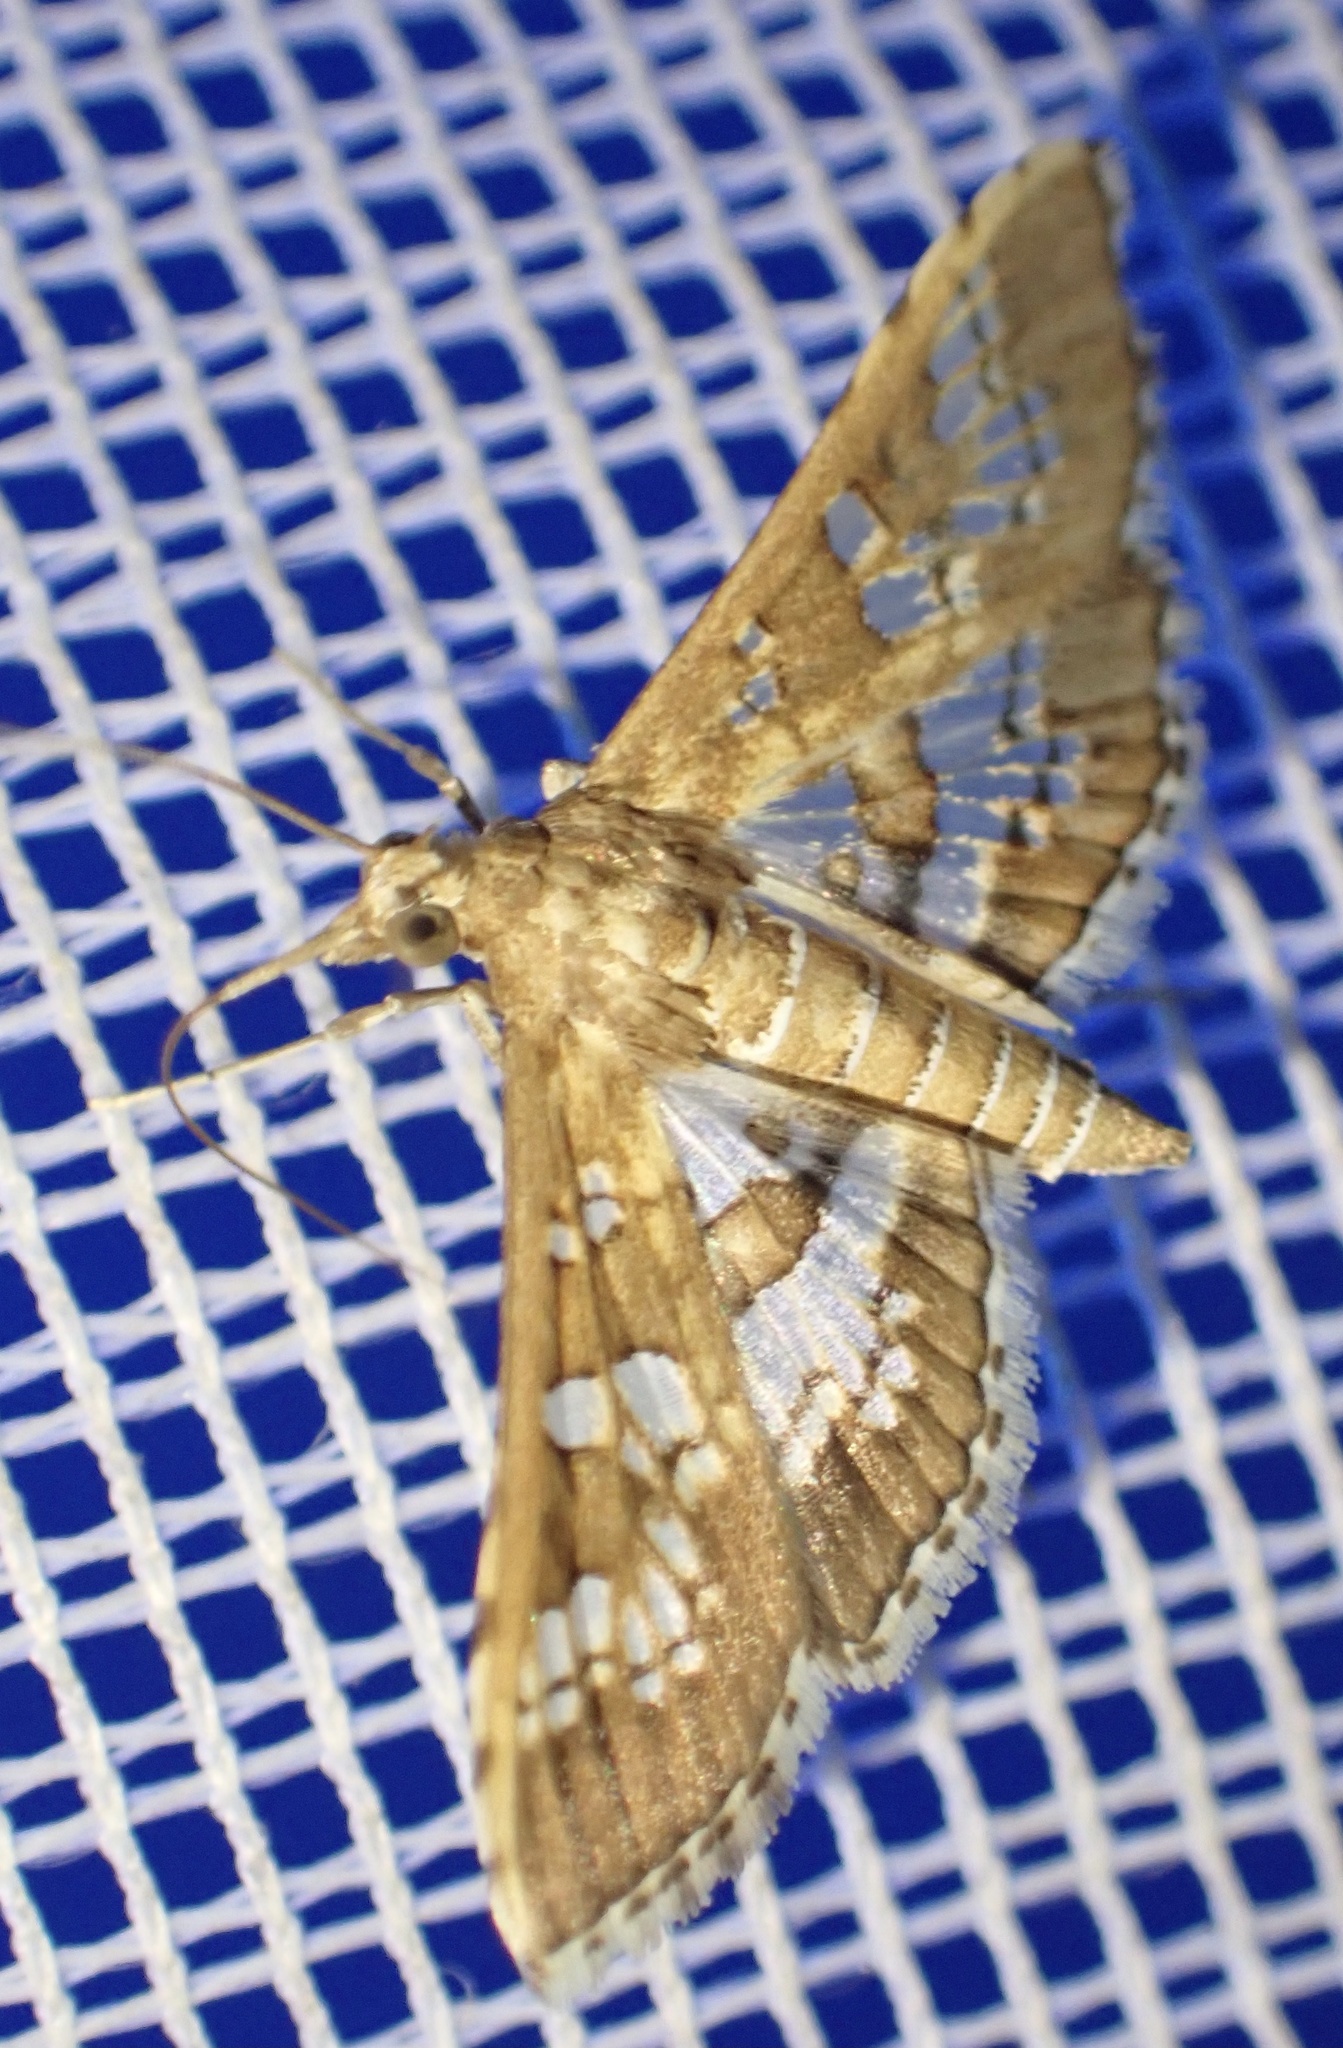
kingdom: Animalia
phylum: Arthropoda
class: Insecta
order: Lepidoptera
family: Crambidae
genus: Sameodes
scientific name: Sameodes cancellalis
